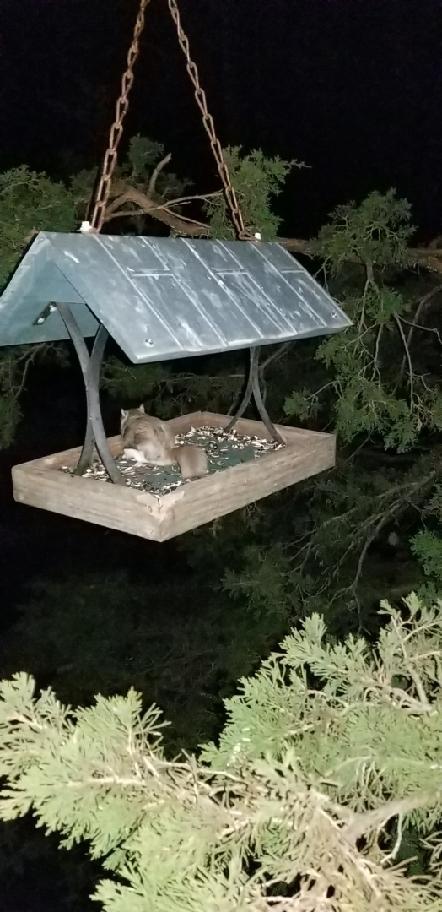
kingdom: Animalia
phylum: Chordata
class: Mammalia
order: Rodentia
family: Sciuridae
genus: Glaucomys
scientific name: Glaucomys volans
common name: Southern flying squirrel
